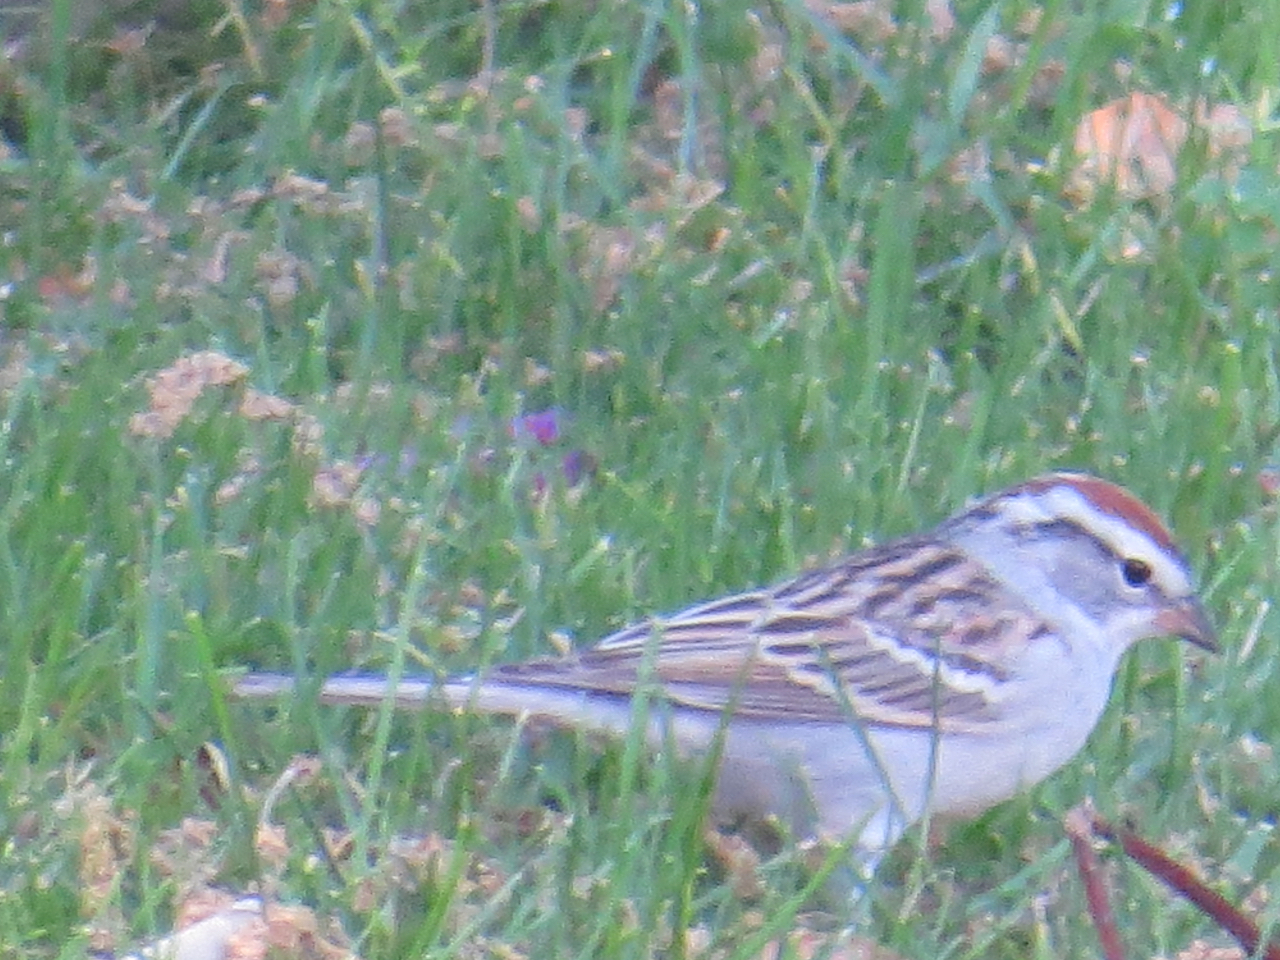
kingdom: Animalia
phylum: Chordata
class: Aves
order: Passeriformes
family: Passerellidae
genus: Spizella
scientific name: Spizella passerina
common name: Chipping sparrow
